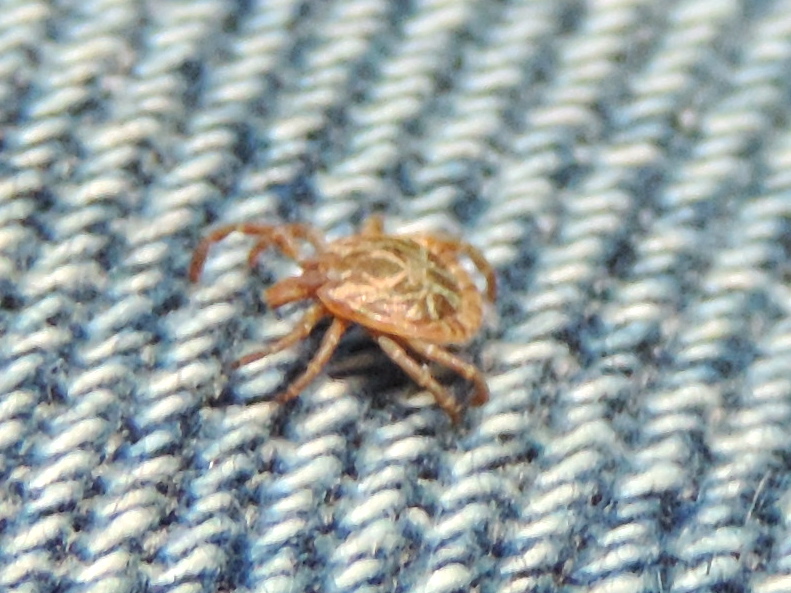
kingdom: Animalia
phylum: Arthropoda
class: Arachnida
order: Ixodida
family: Ixodidae
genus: Amblyomma
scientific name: Amblyomma cajennense
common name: Cayenne tick
